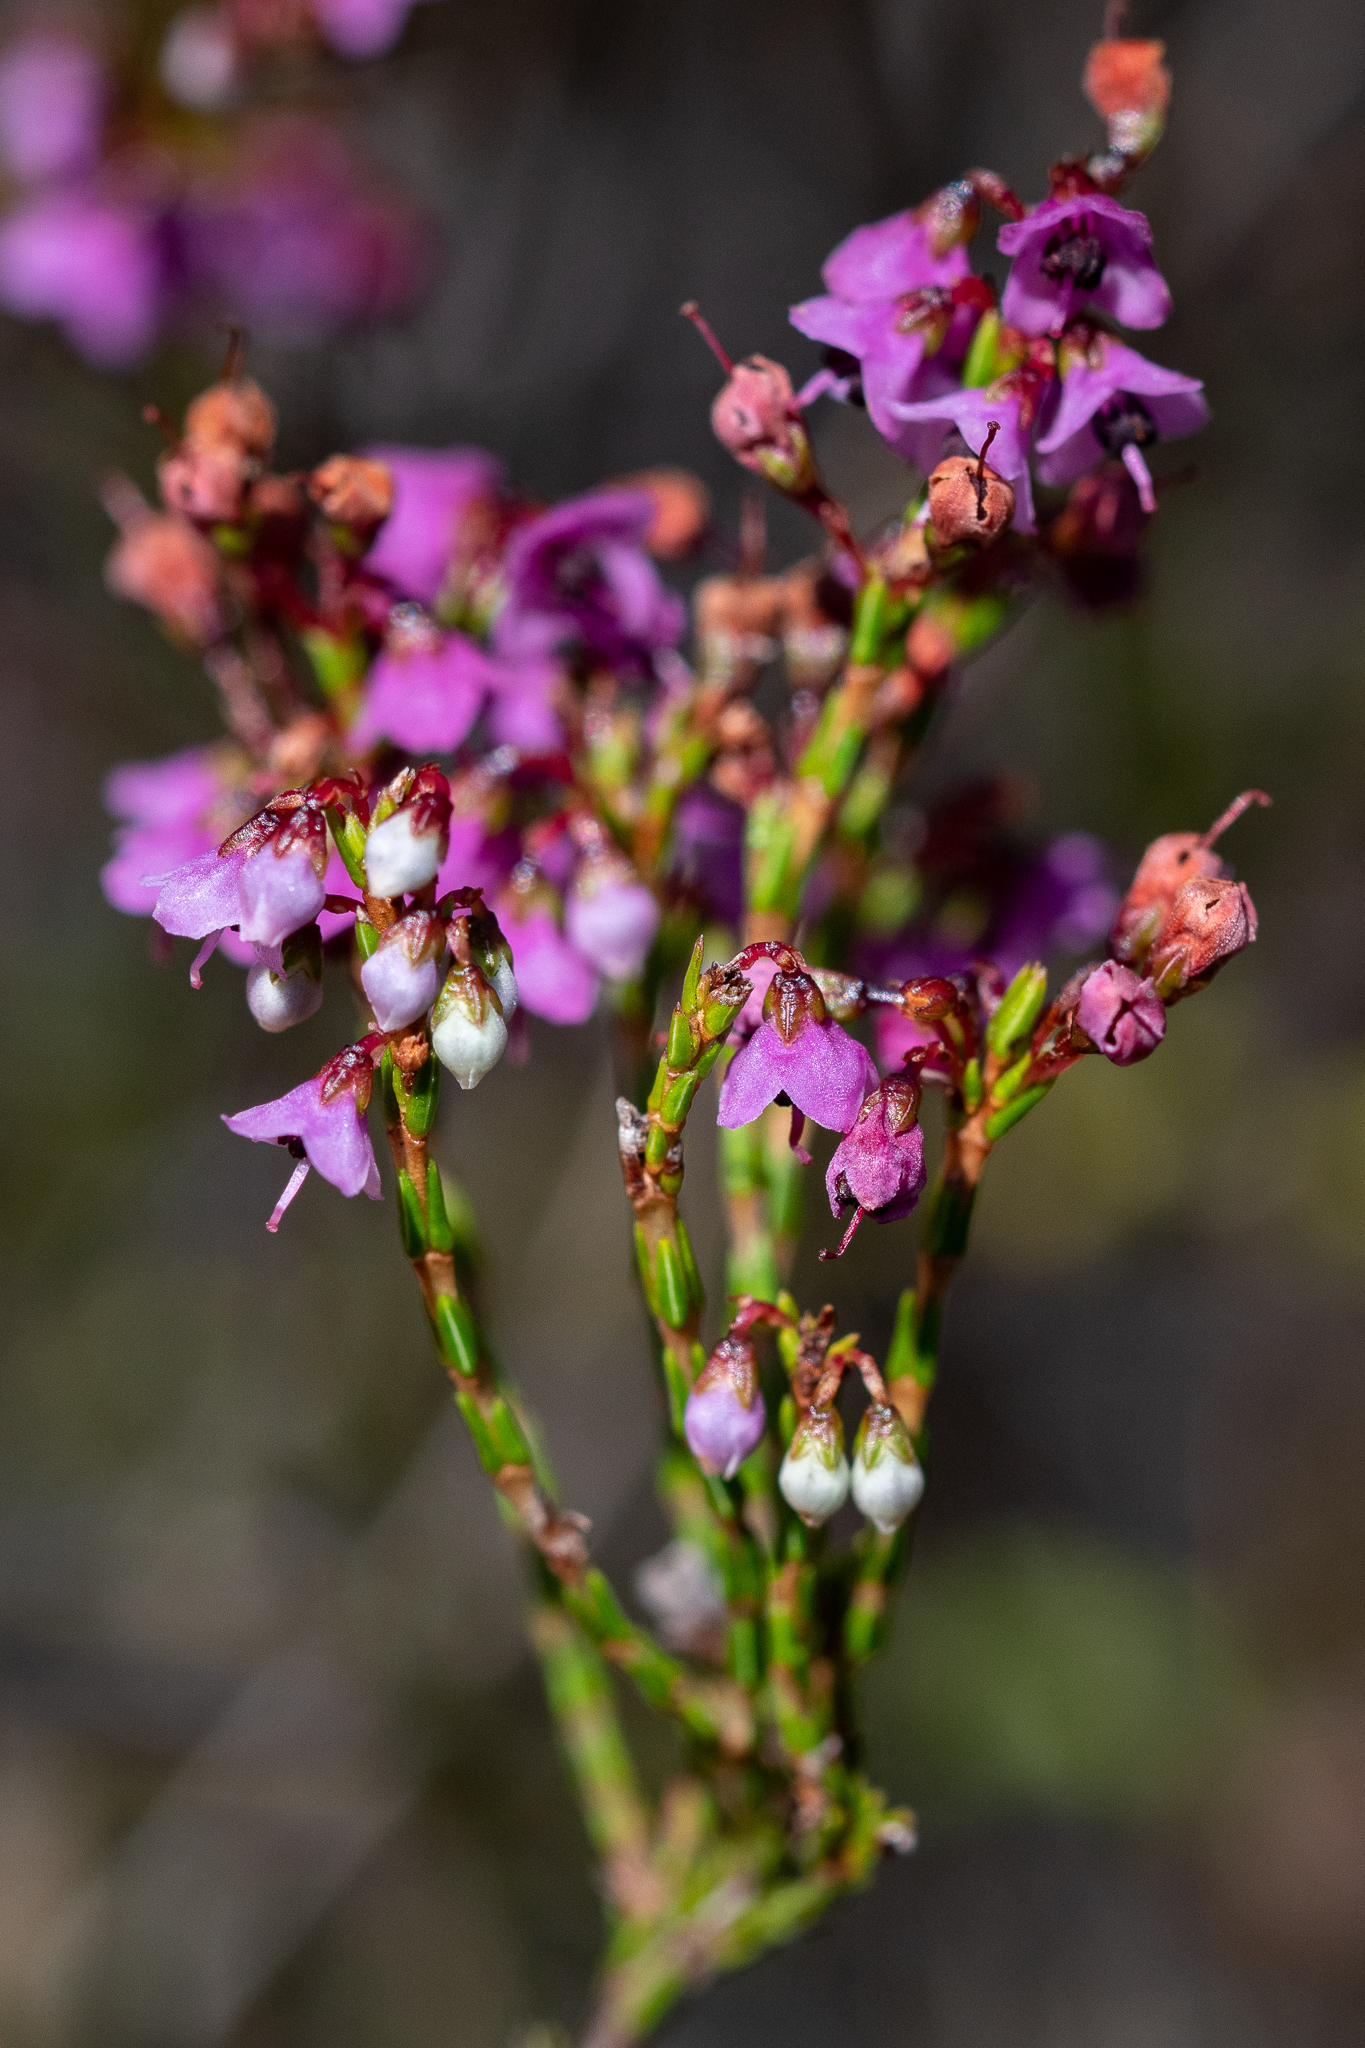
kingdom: Plantae
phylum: Tracheophyta
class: Magnoliopsida
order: Ericales
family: Ericaceae
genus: Erica
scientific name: Erica hermani
